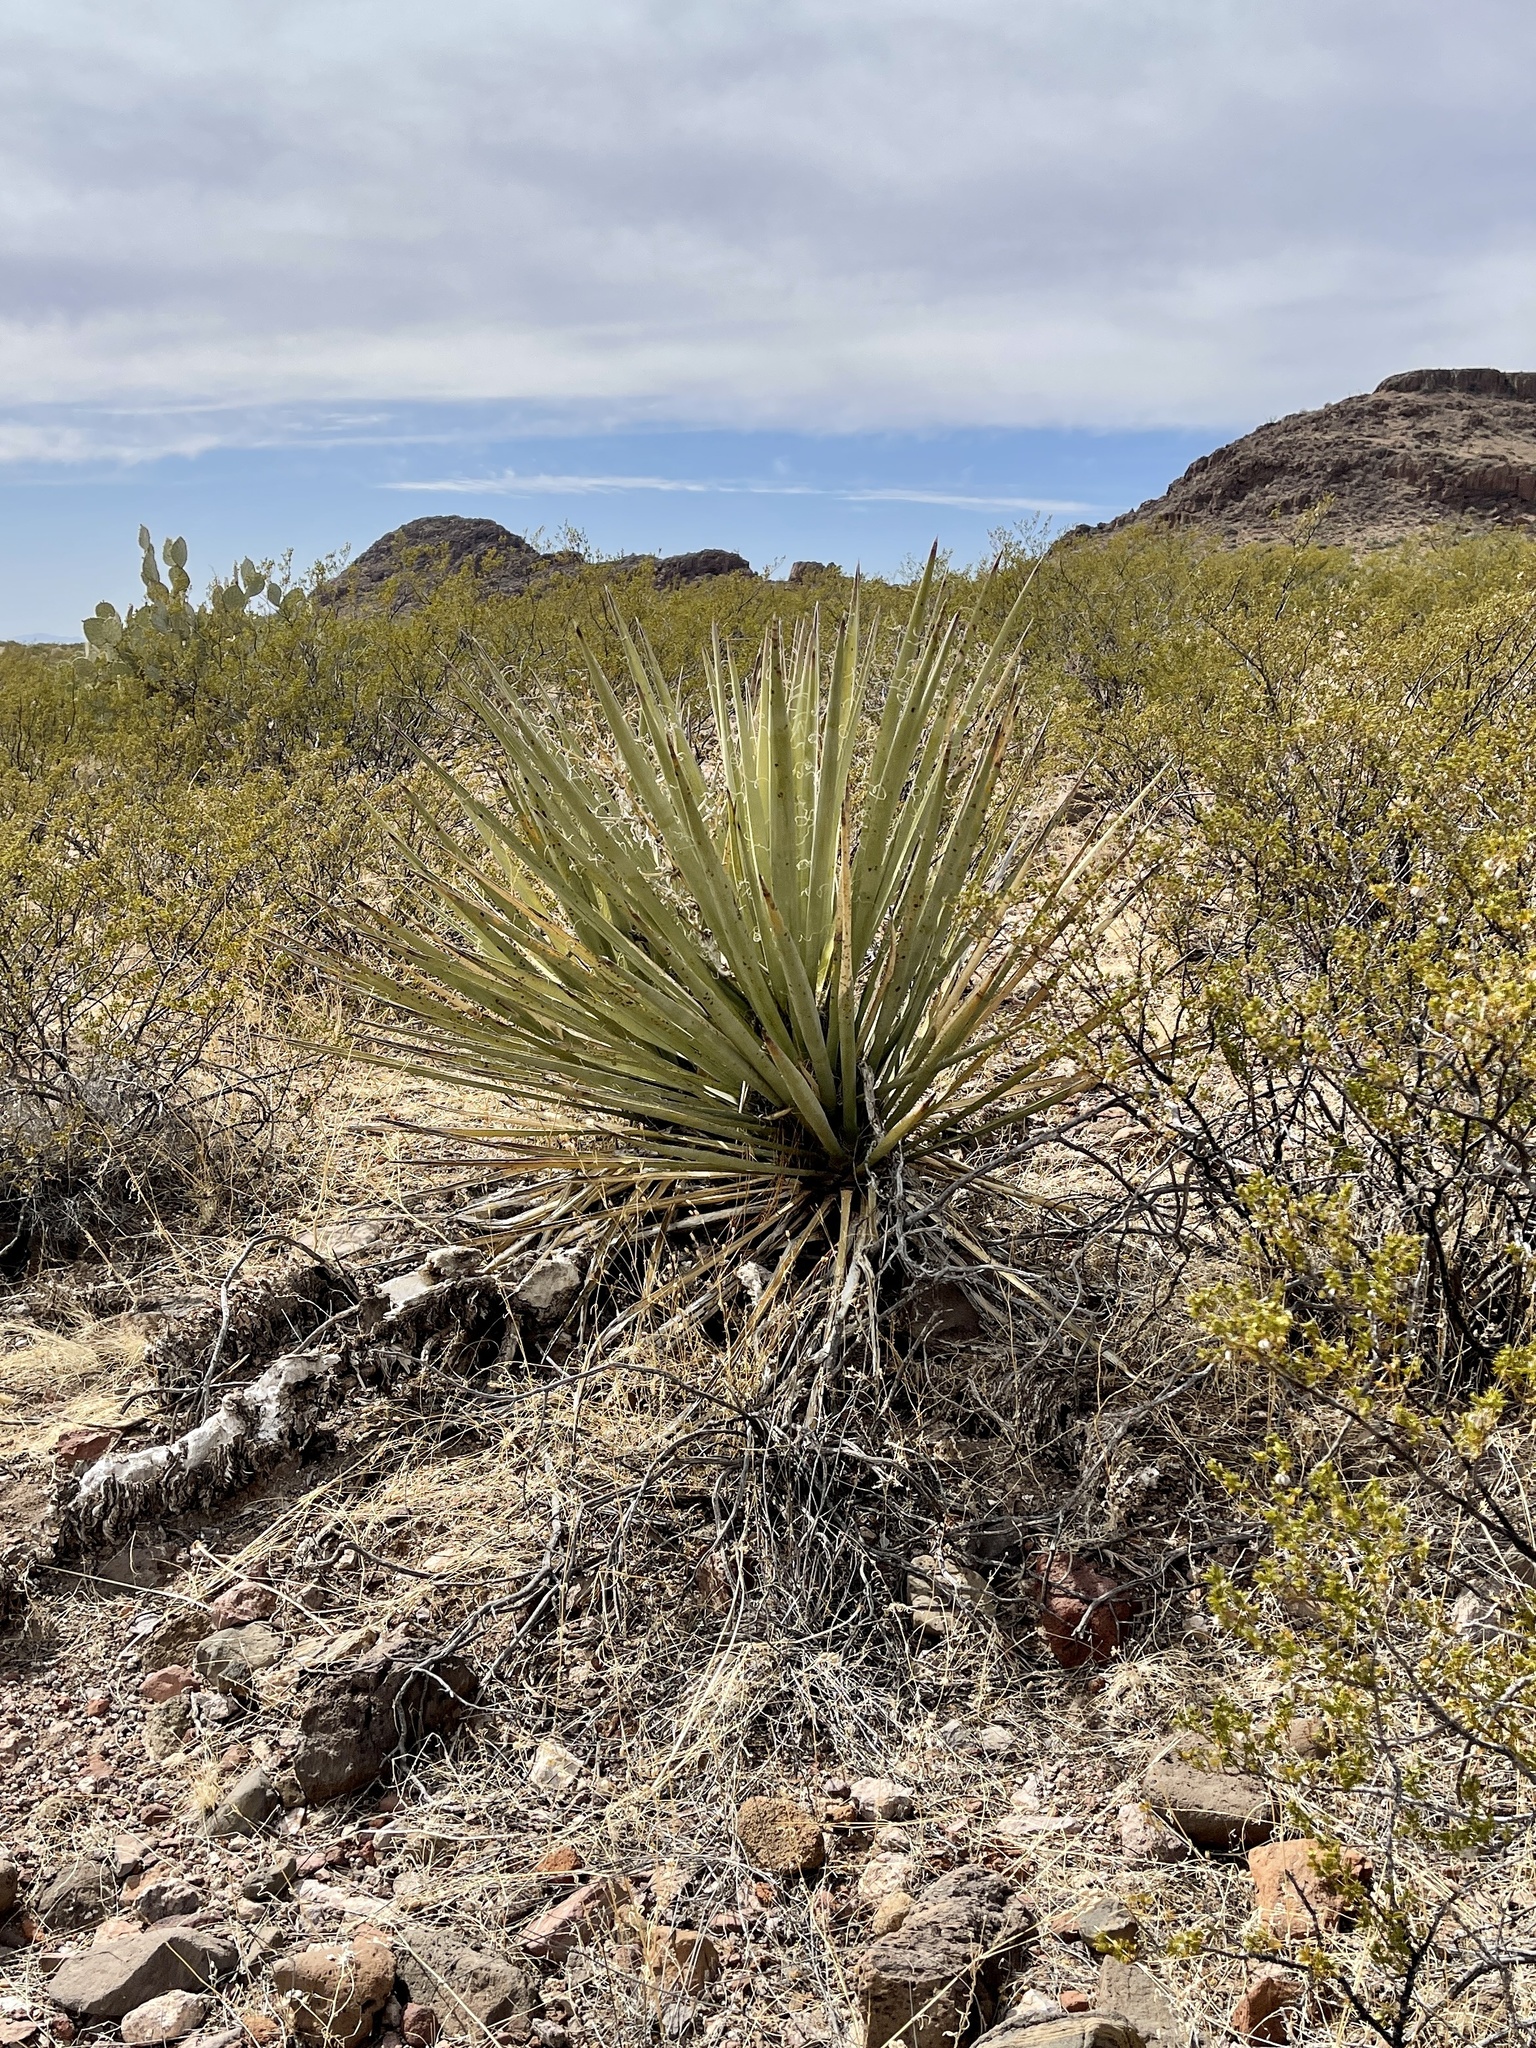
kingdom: Plantae
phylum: Tracheophyta
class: Liliopsida
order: Asparagales
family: Asparagaceae
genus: Yucca
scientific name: Yucca baccata
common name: Banana yucca
